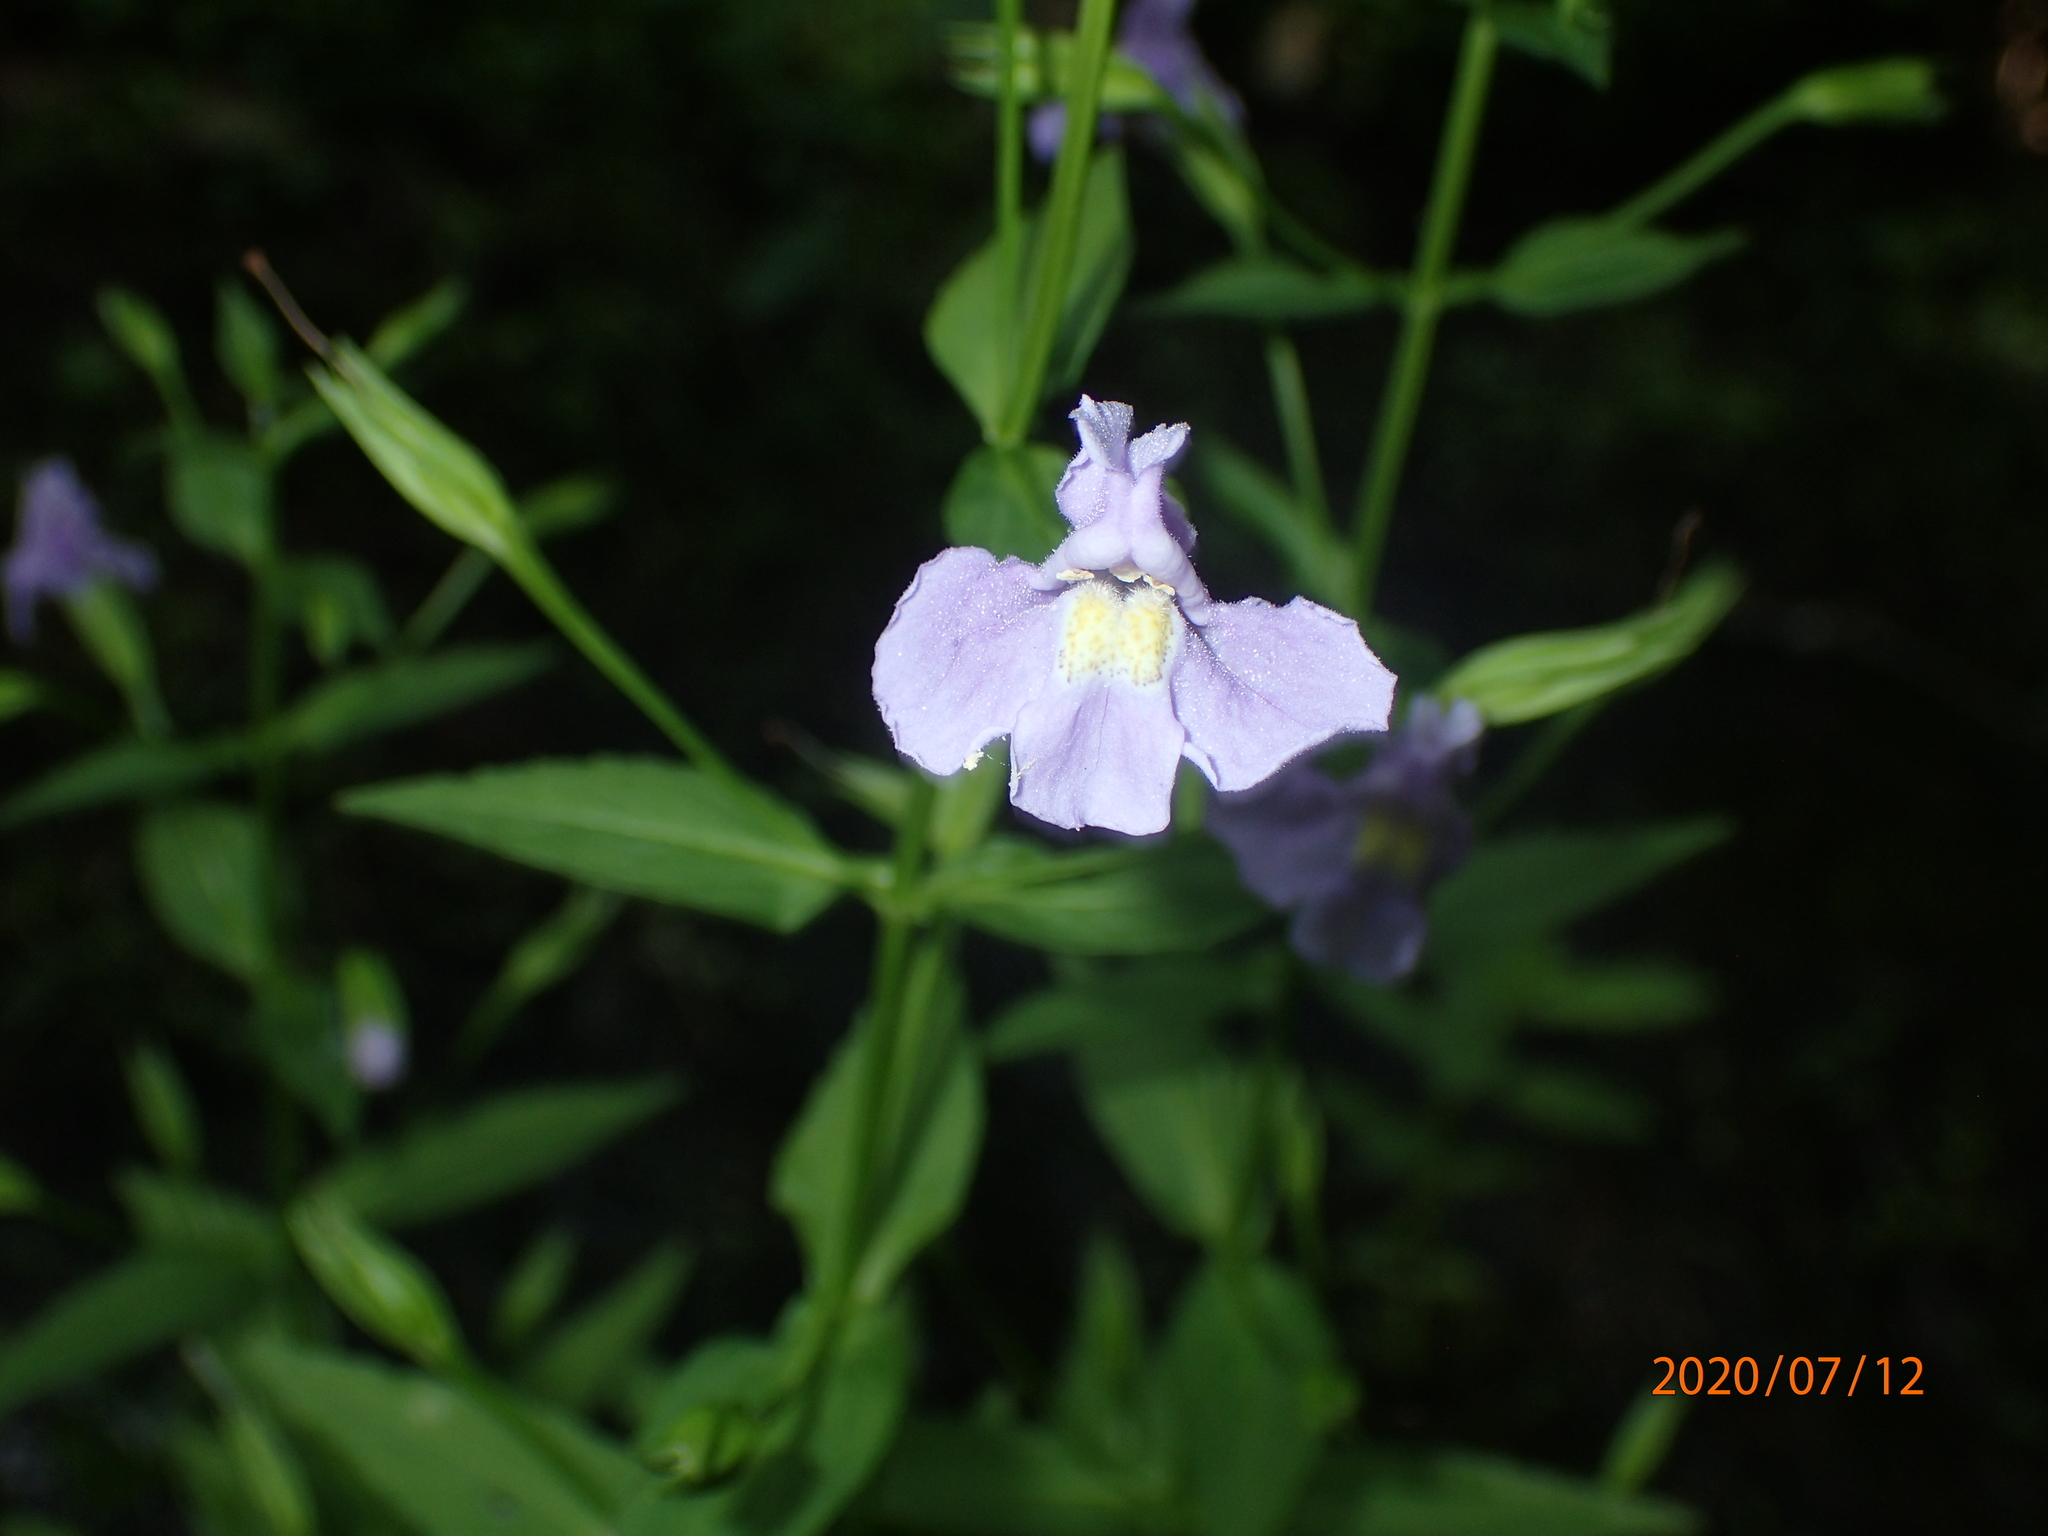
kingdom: Plantae
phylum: Tracheophyta
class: Magnoliopsida
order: Lamiales
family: Phrymaceae
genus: Mimulus
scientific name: Mimulus ringens
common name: Allegheny monkeyflower
